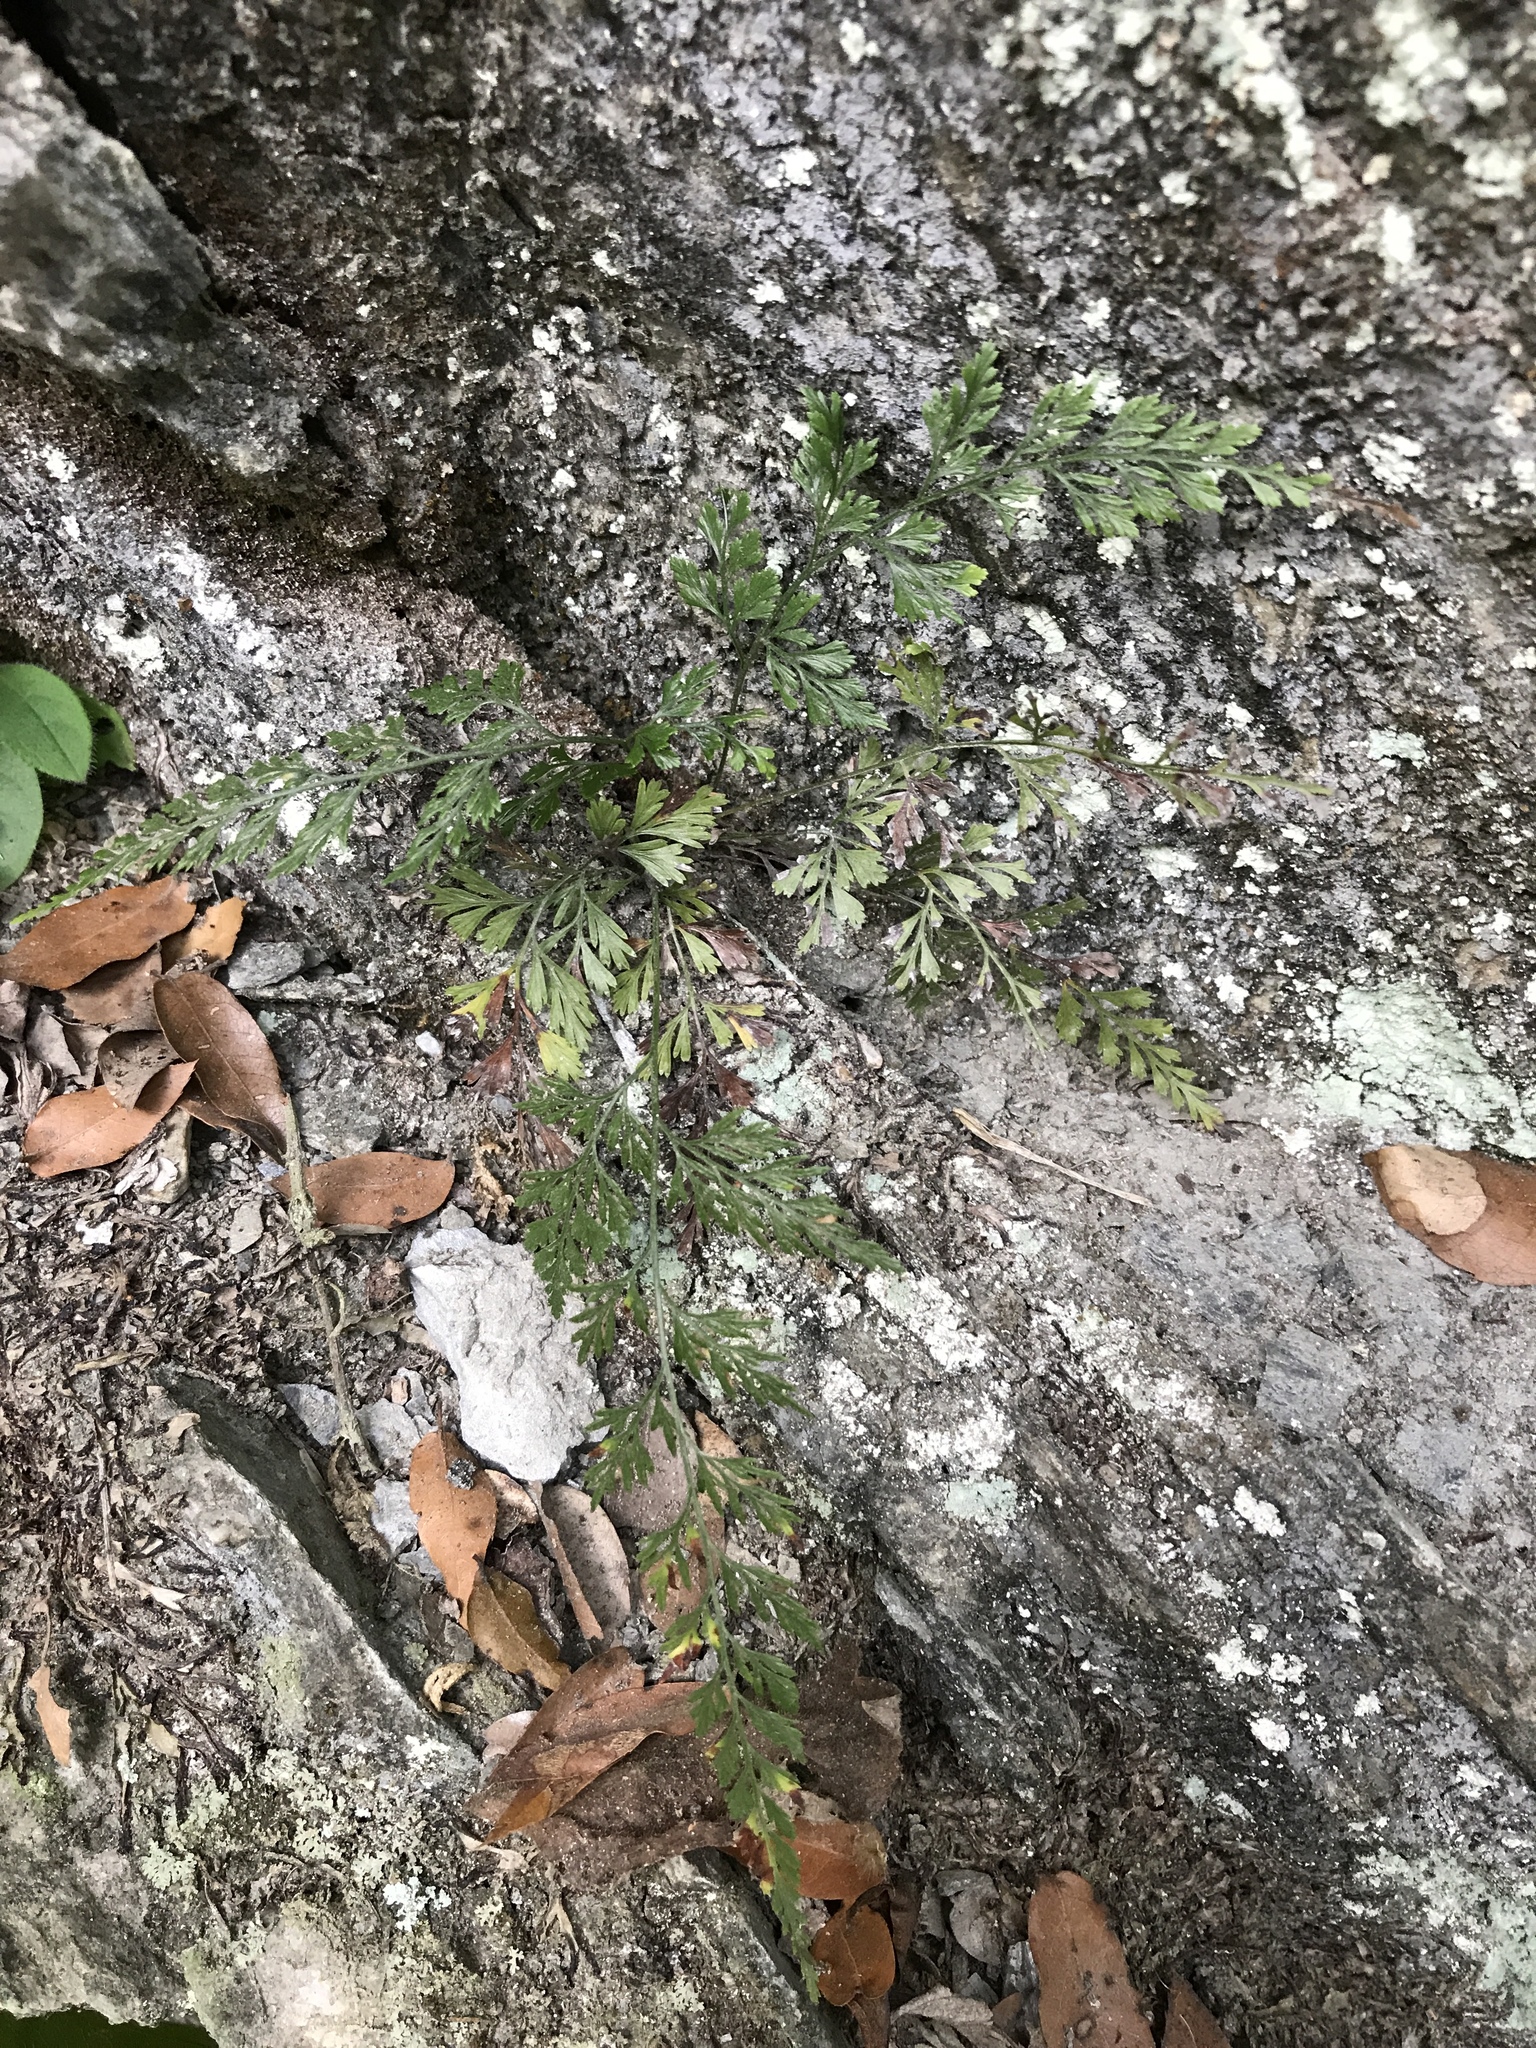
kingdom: Plantae
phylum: Tracheophyta
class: Polypodiopsida
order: Polypodiales
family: Pteridaceae
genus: Onychium
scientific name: Onychium japonicum
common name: Carrot fern
